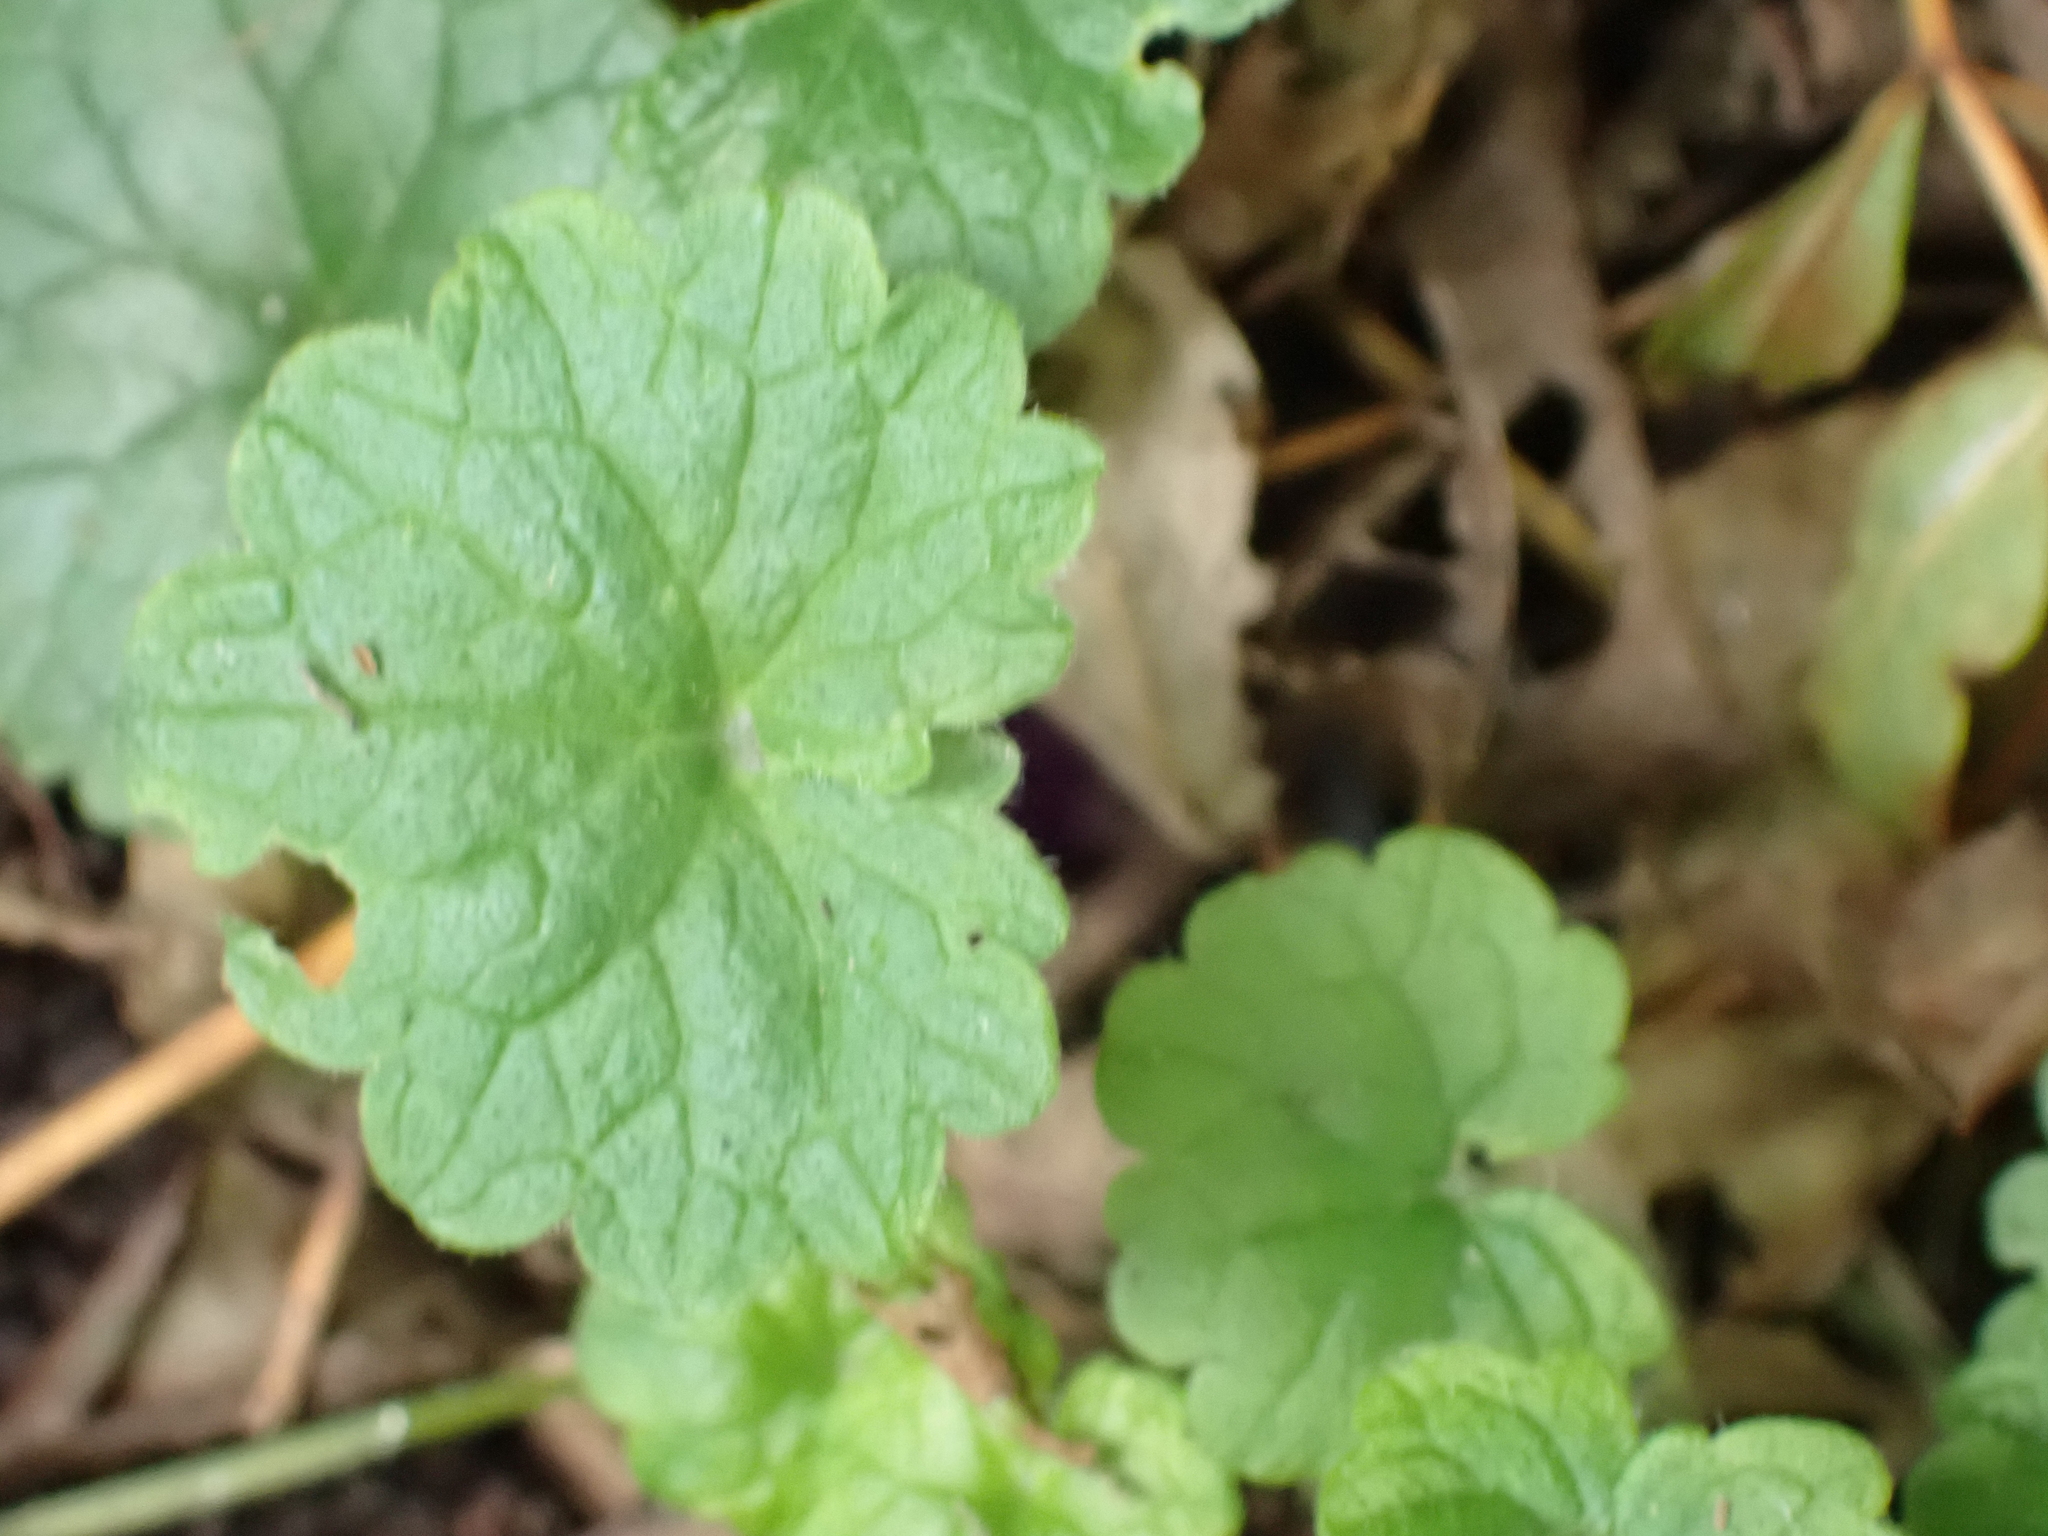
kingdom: Plantae
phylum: Tracheophyta
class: Magnoliopsida
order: Lamiales
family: Lamiaceae
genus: Glechoma
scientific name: Glechoma hederacea
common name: Ground ivy
